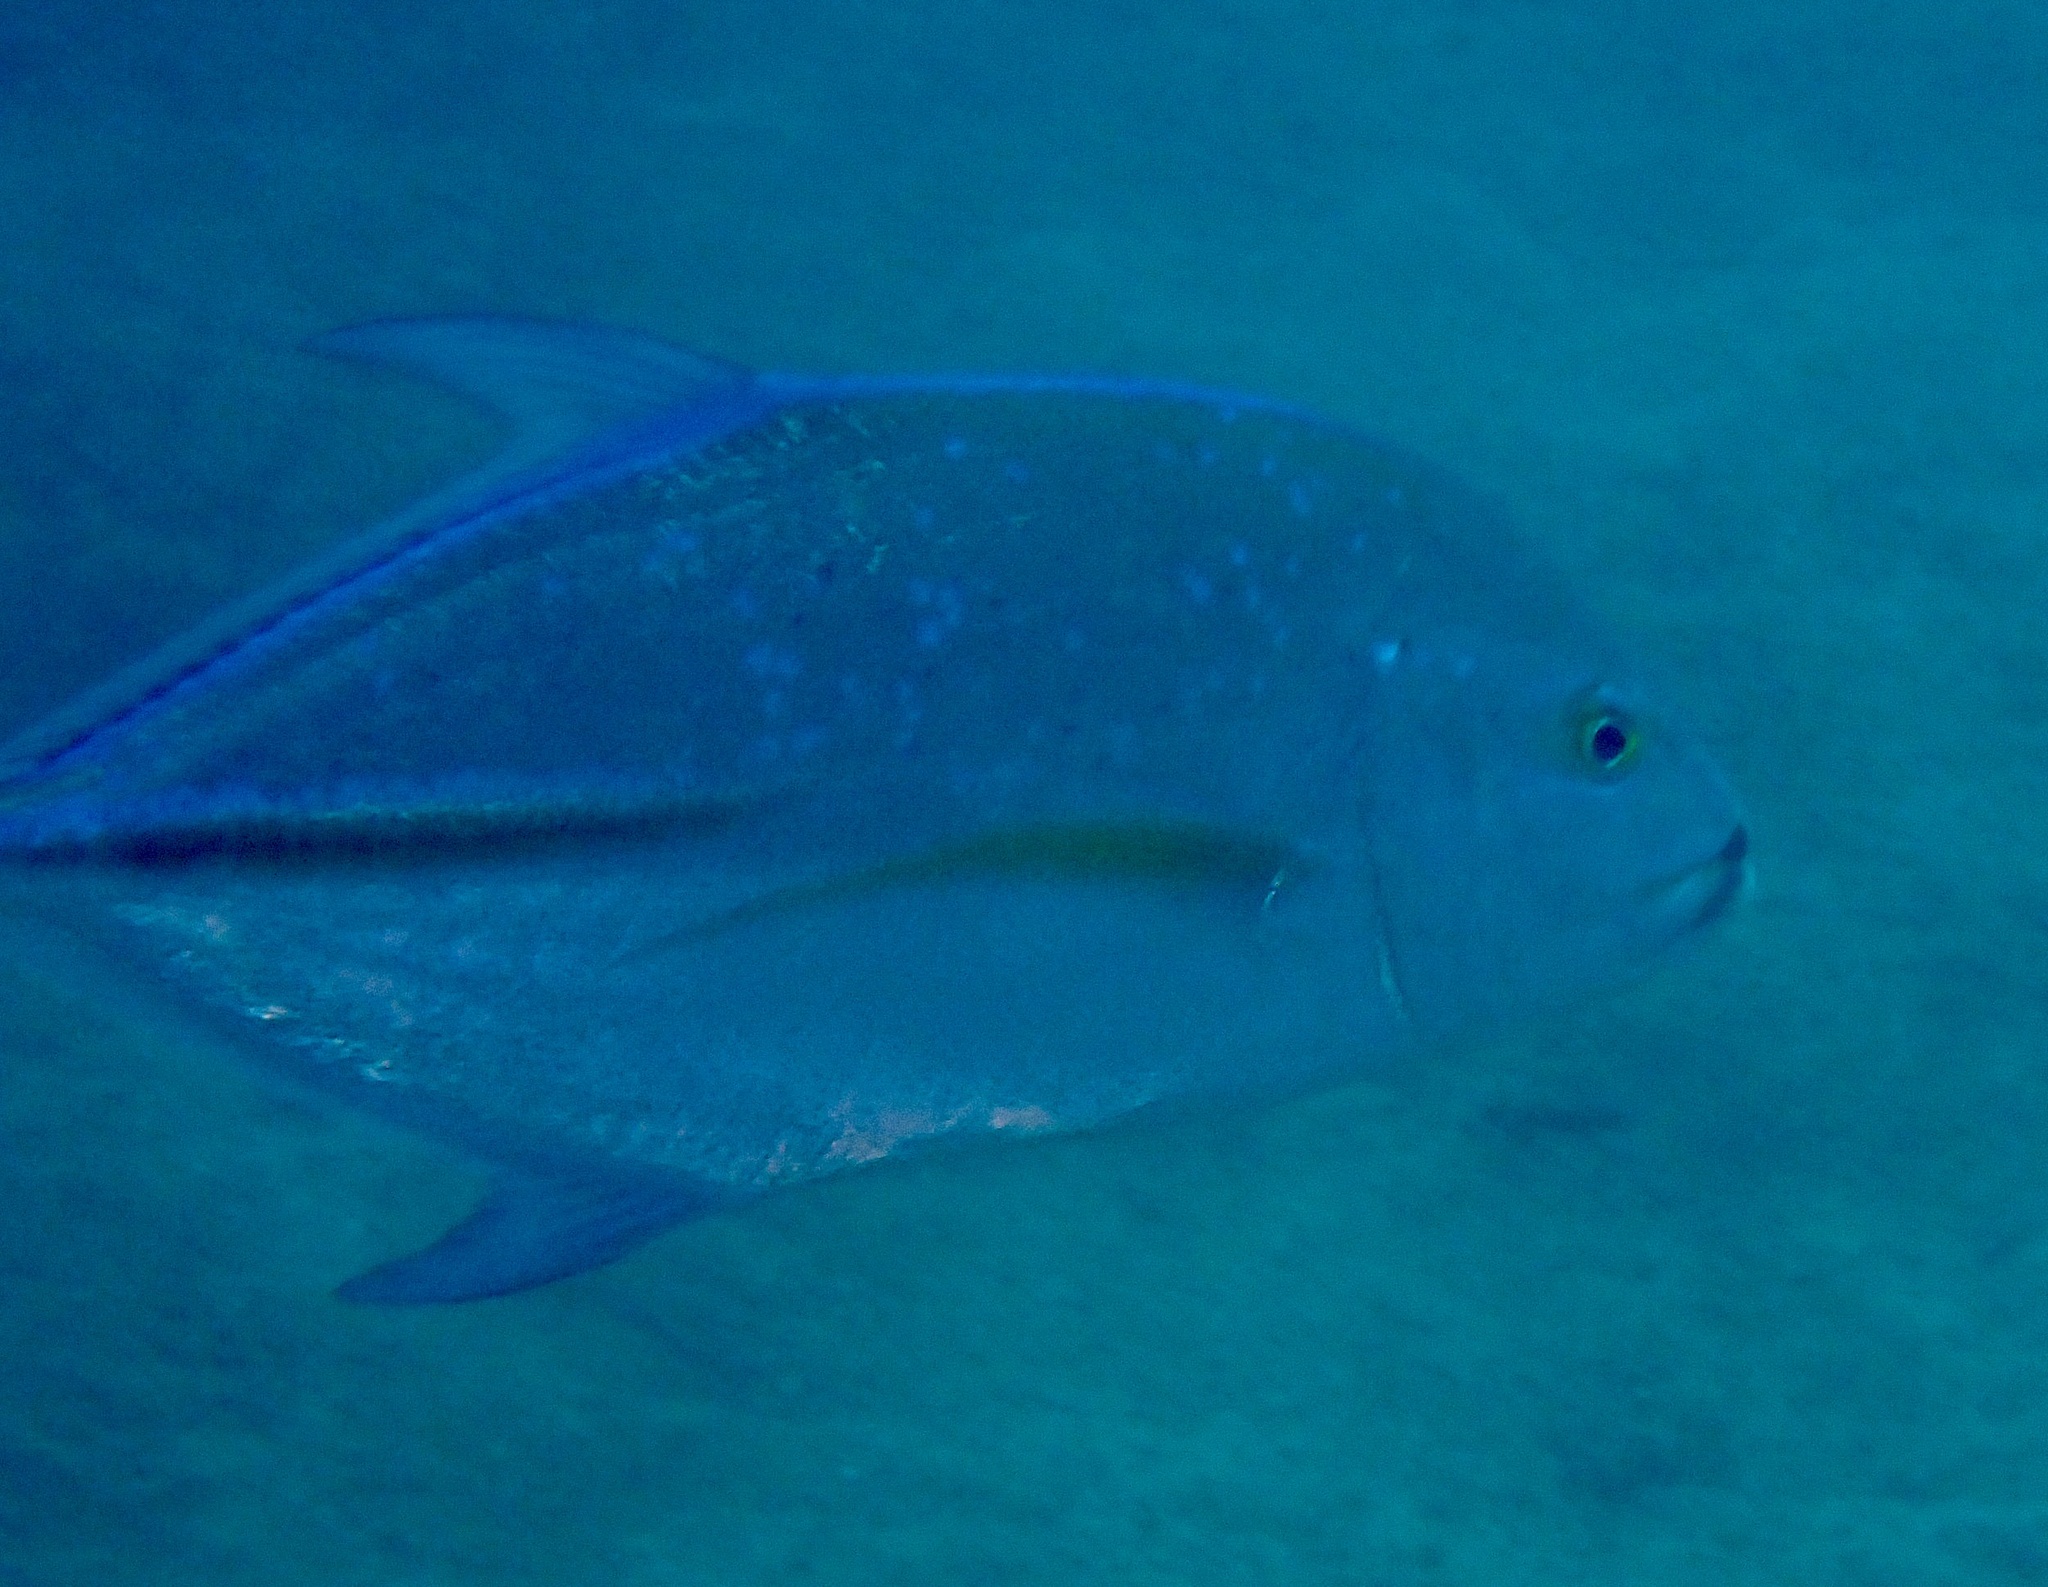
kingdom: Animalia
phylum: Chordata
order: Perciformes
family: Carangidae
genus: Caranx
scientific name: Caranx melampygus
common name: Bluefin trevally
